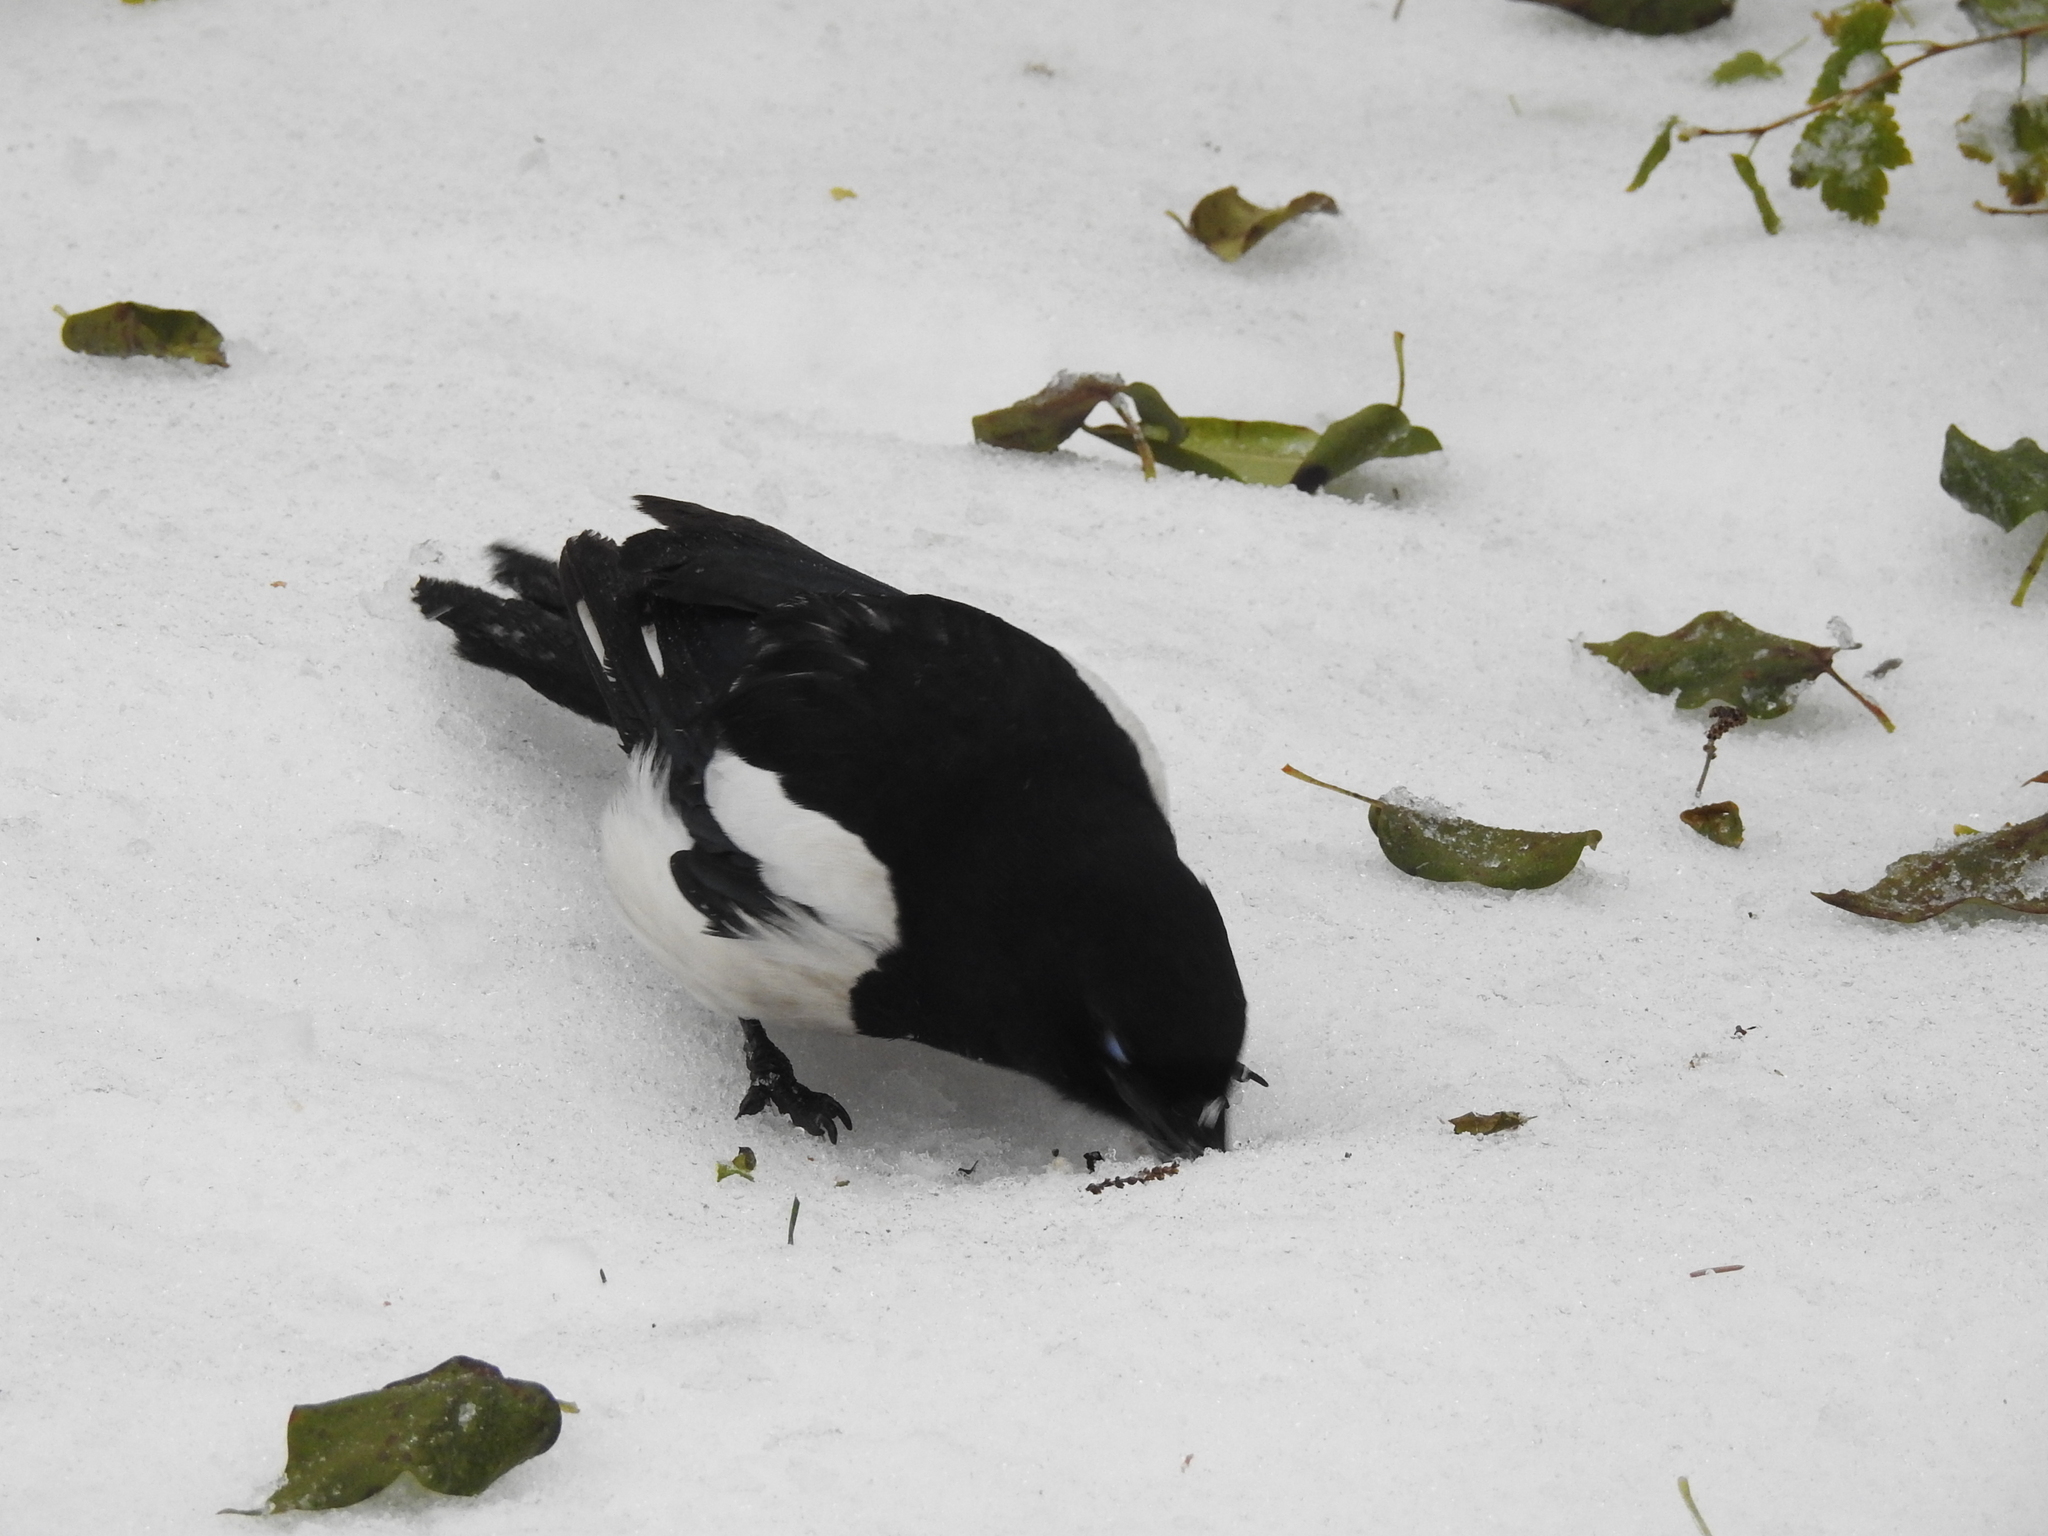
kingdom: Animalia
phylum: Chordata
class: Aves
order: Passeriformes
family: Corvidae
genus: Pica
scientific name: Pica pica
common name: Eurasian magpie
